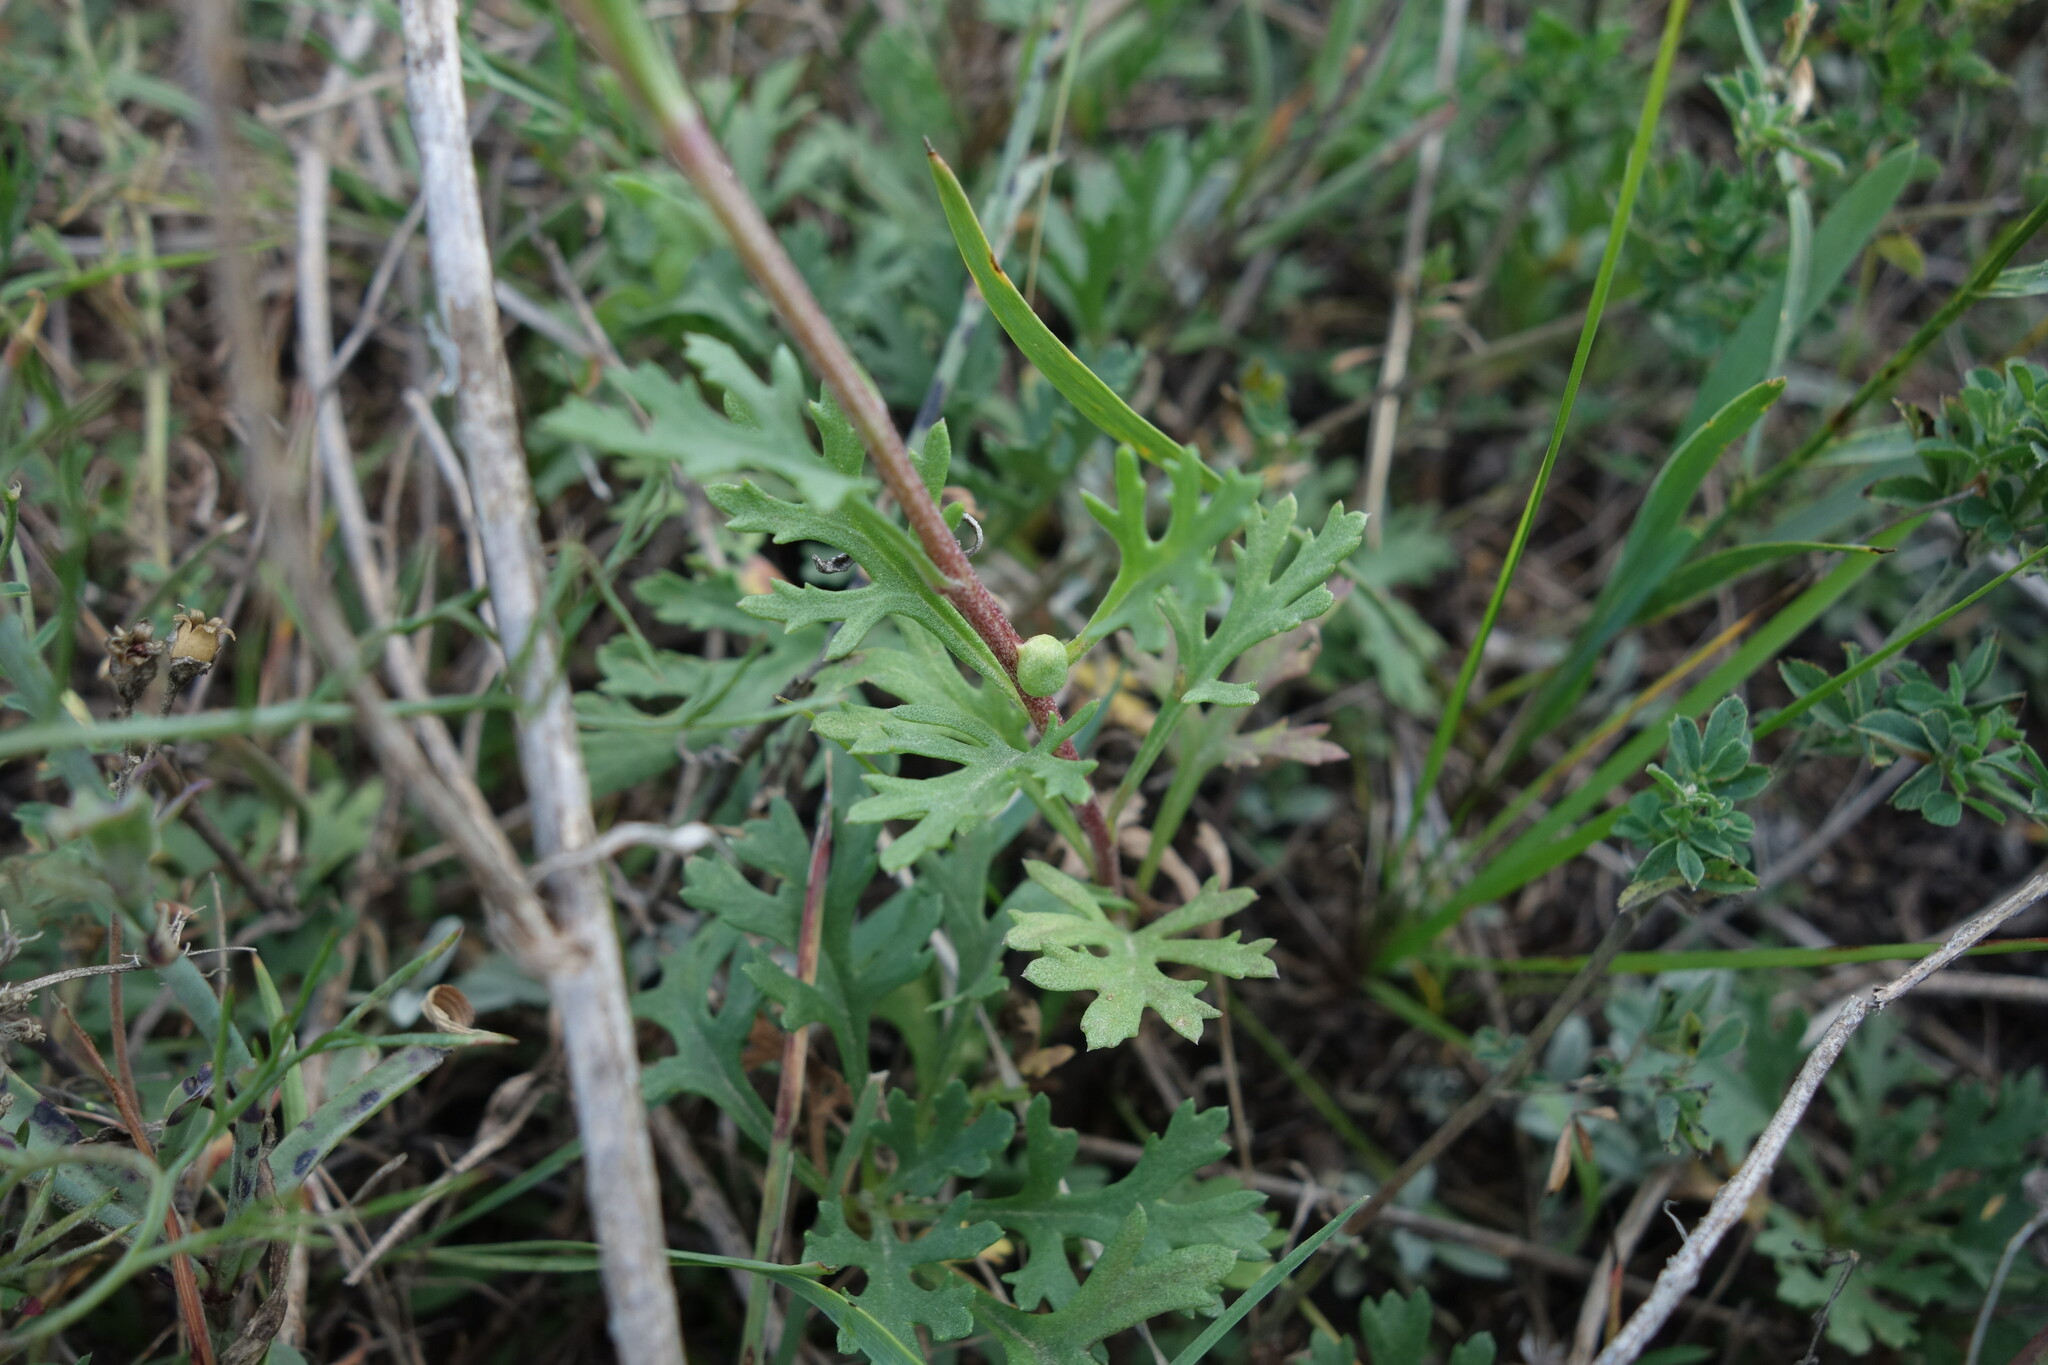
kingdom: Plantae
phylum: Tracheophyta
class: Magnoliopsida
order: Asterales
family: Asteraceae
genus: Chrysanthemum
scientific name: Chrysanthemum zawadzkii
